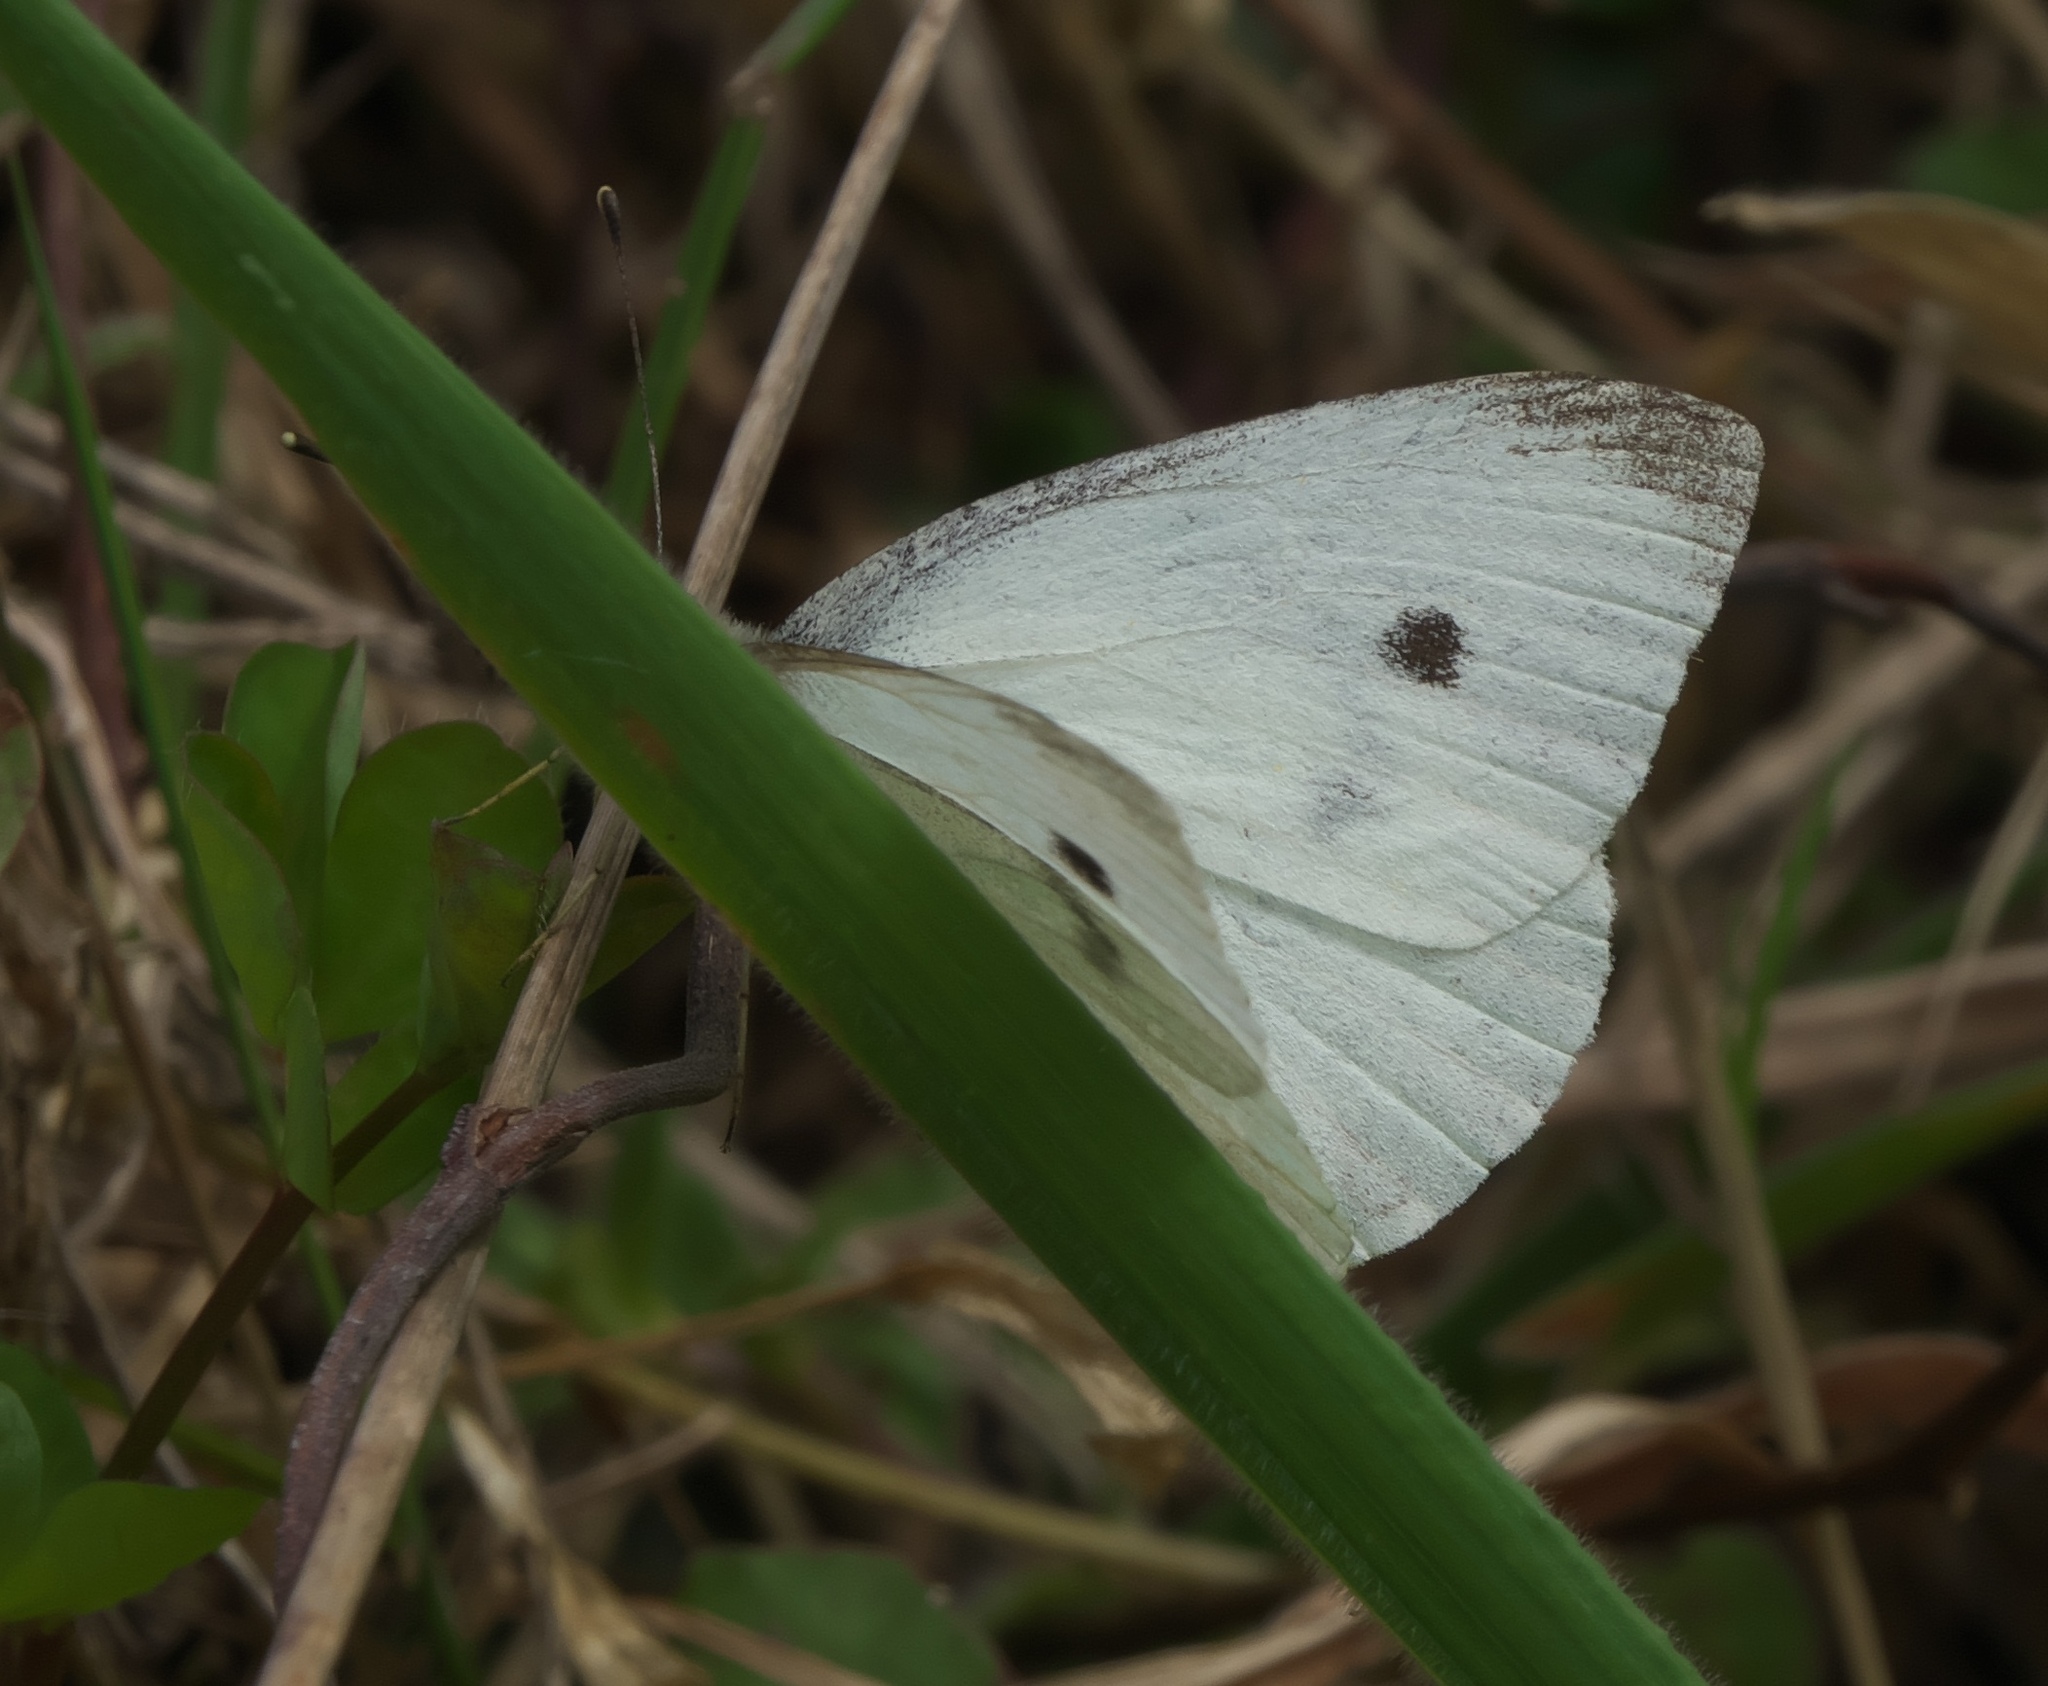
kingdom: Animalia
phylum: Arthropoda
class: Insecta
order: Lepidoptera
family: Pieridae
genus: Pieris
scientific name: Pieris rapae
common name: Small white
